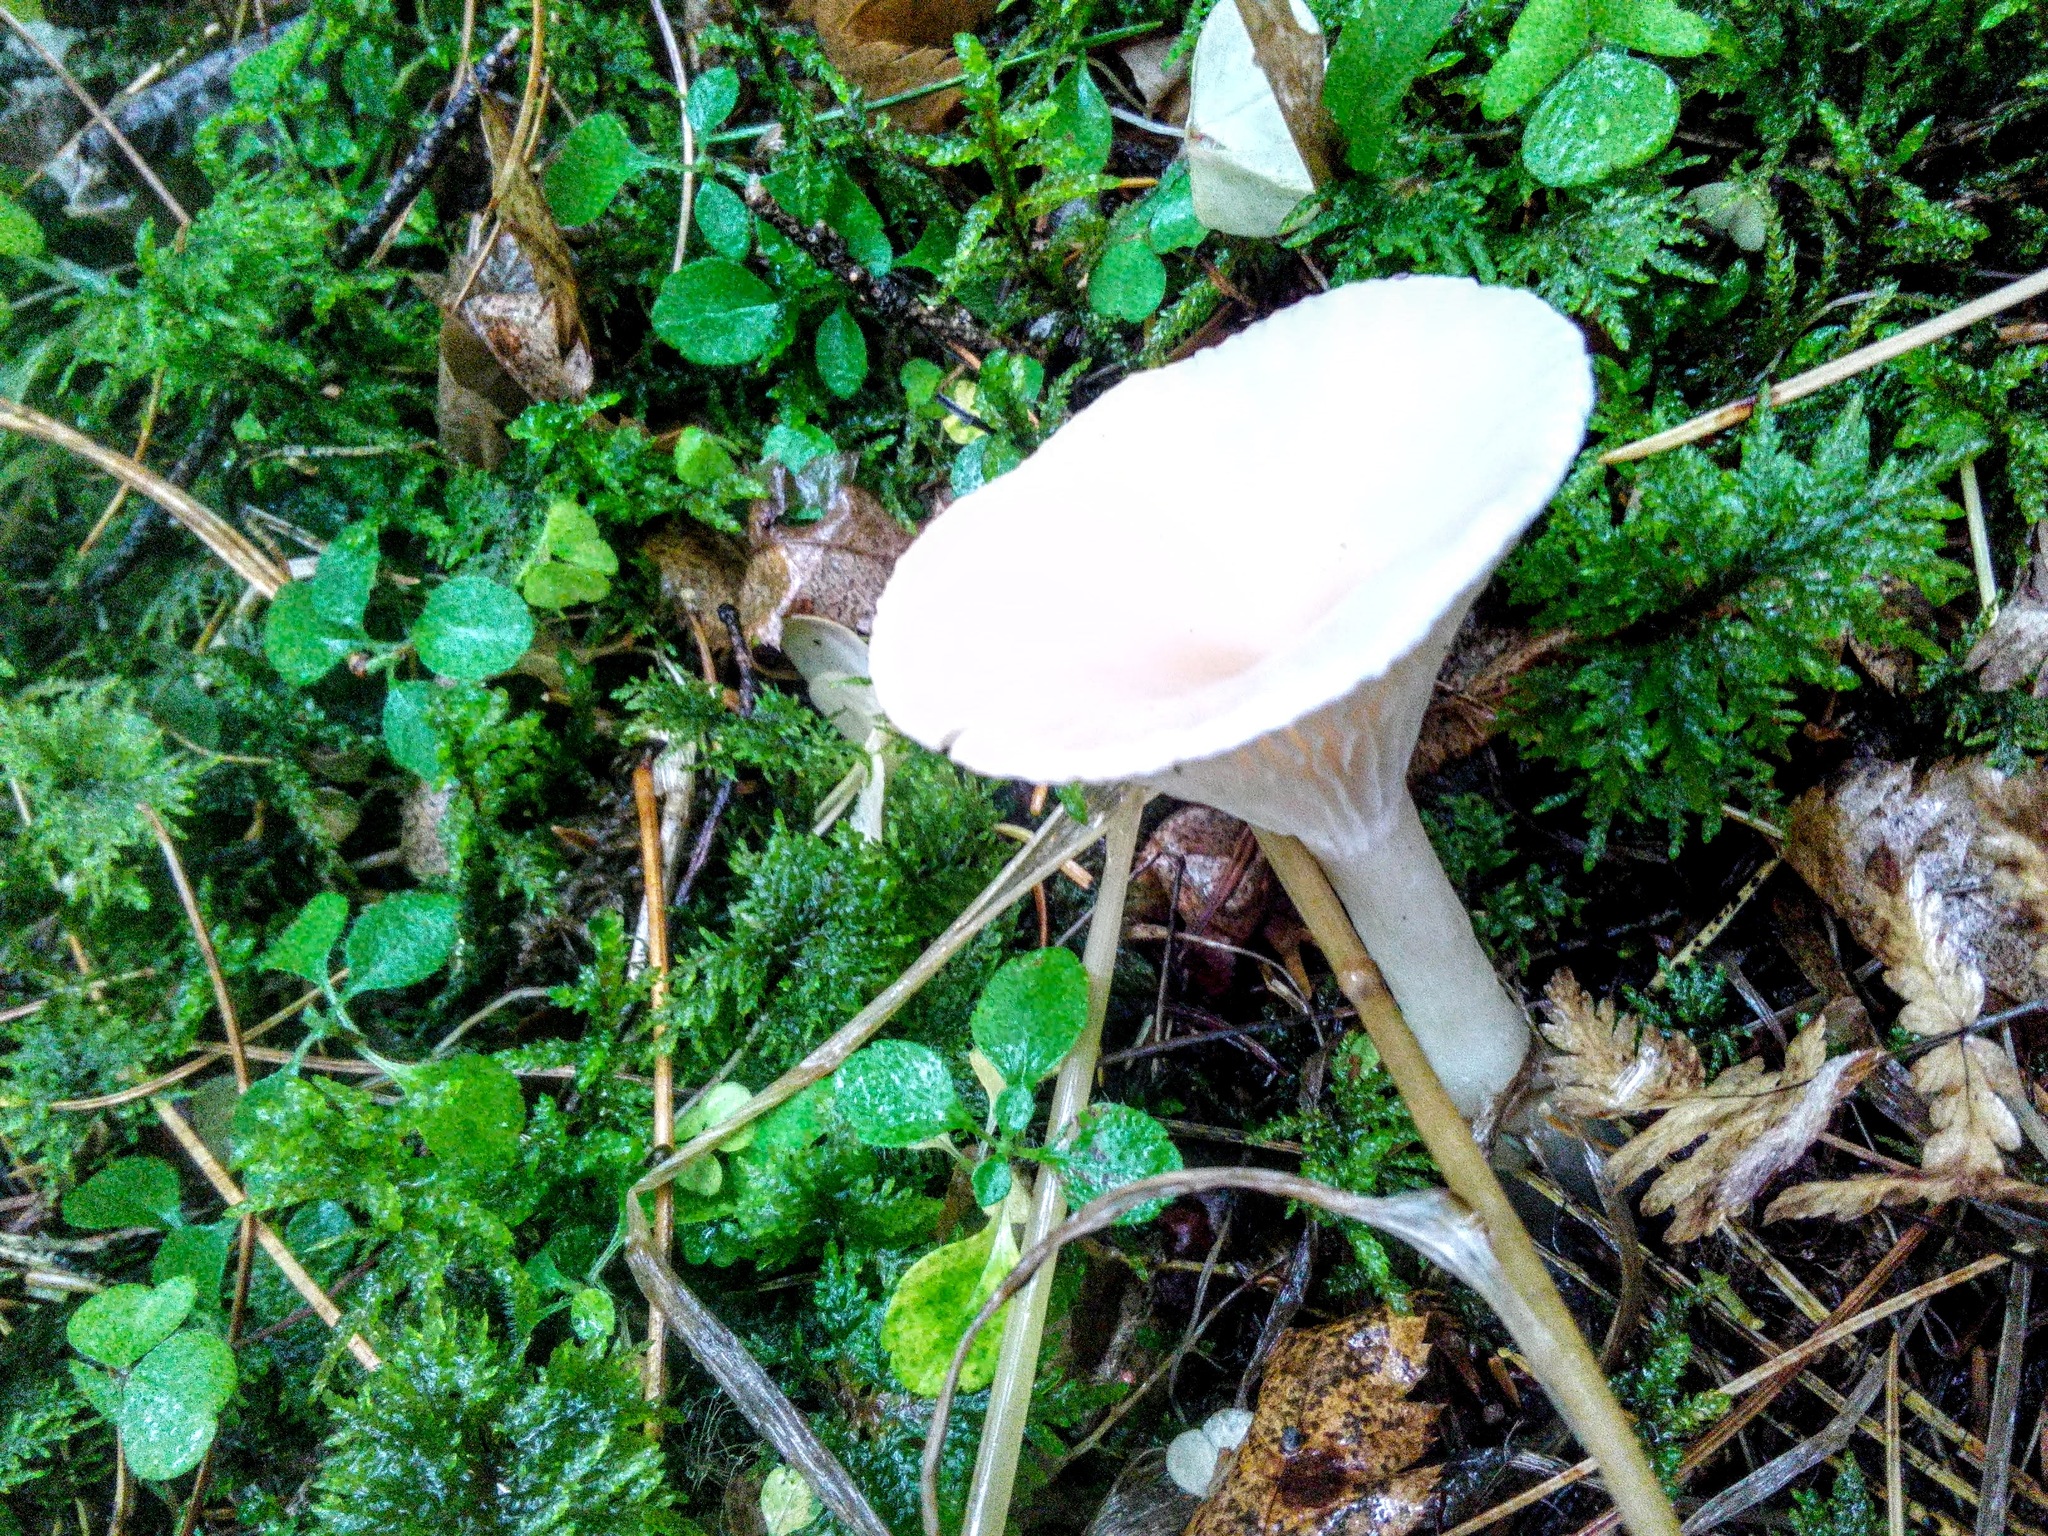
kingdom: Fungi
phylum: Basidiomycota
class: Agaricomycetes
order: Agaricales
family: Tricholomataceae
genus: Infundibulicybe
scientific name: Infundibulicybe gibba
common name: Common funnel
